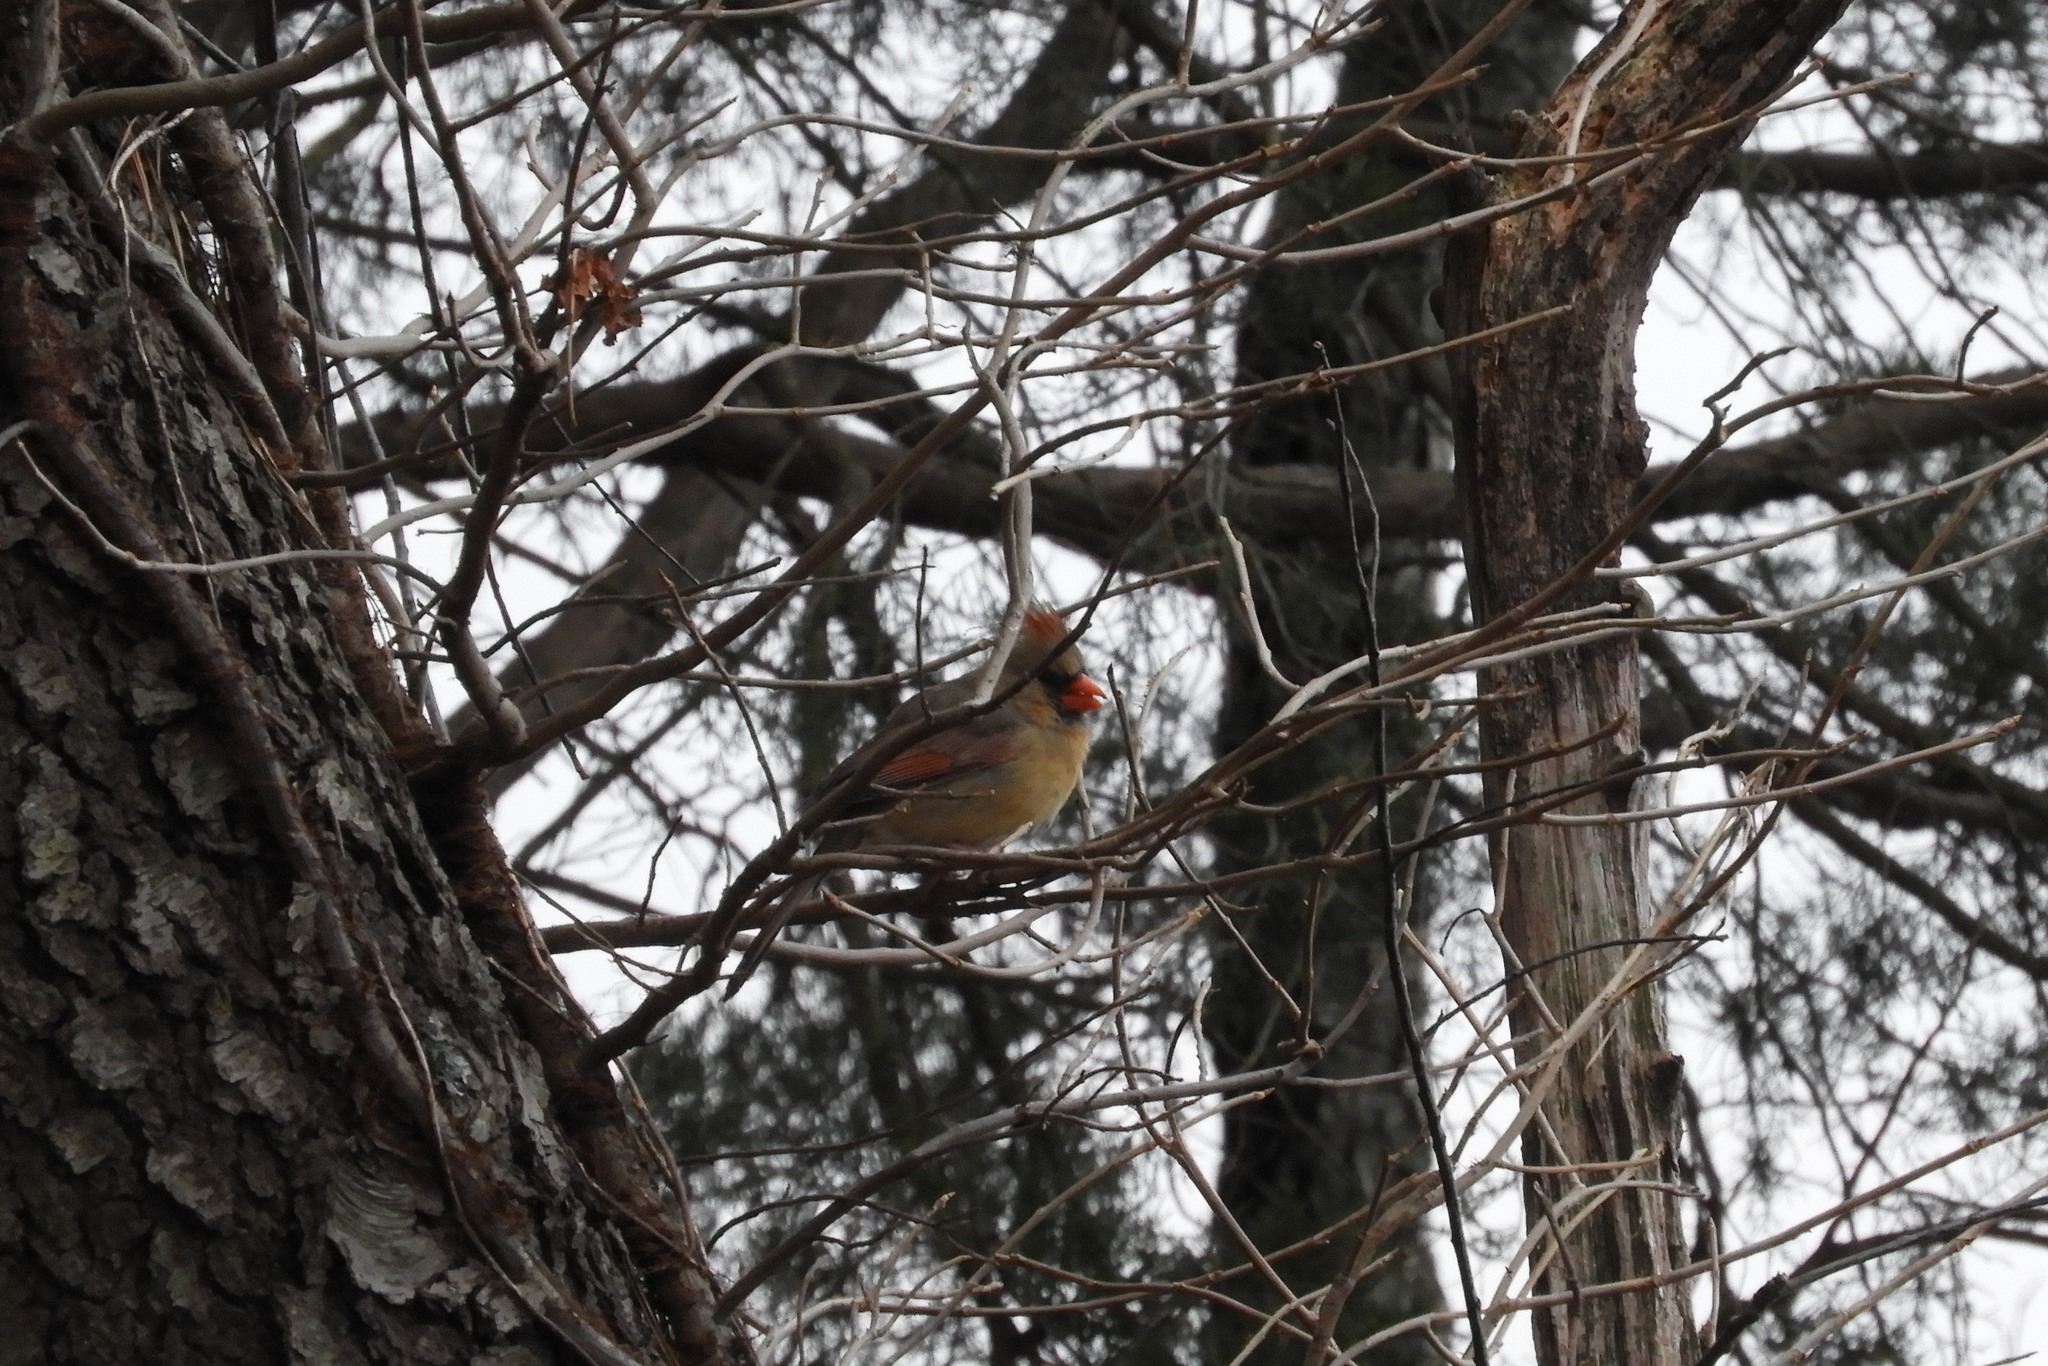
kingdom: Animalia
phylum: Chordata
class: Aves
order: Passeriformes
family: Cardinalidae
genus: Cardinalis
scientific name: Cardinalis cardinalis
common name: Northern cardinal
